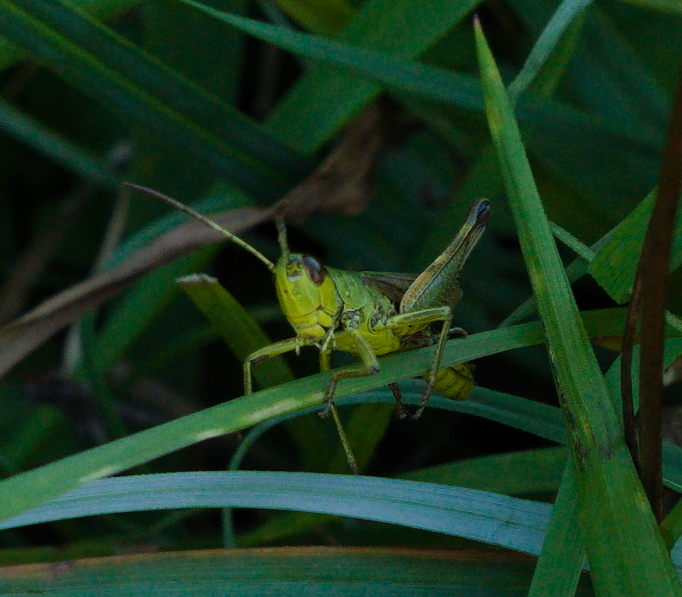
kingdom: Animalia
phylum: Arthropoda
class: Insecta
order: Orthoptera
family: Acrididae
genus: Pseudochorthippus
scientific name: Pseudochorthippus parallelus
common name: Meadow grasshopper
